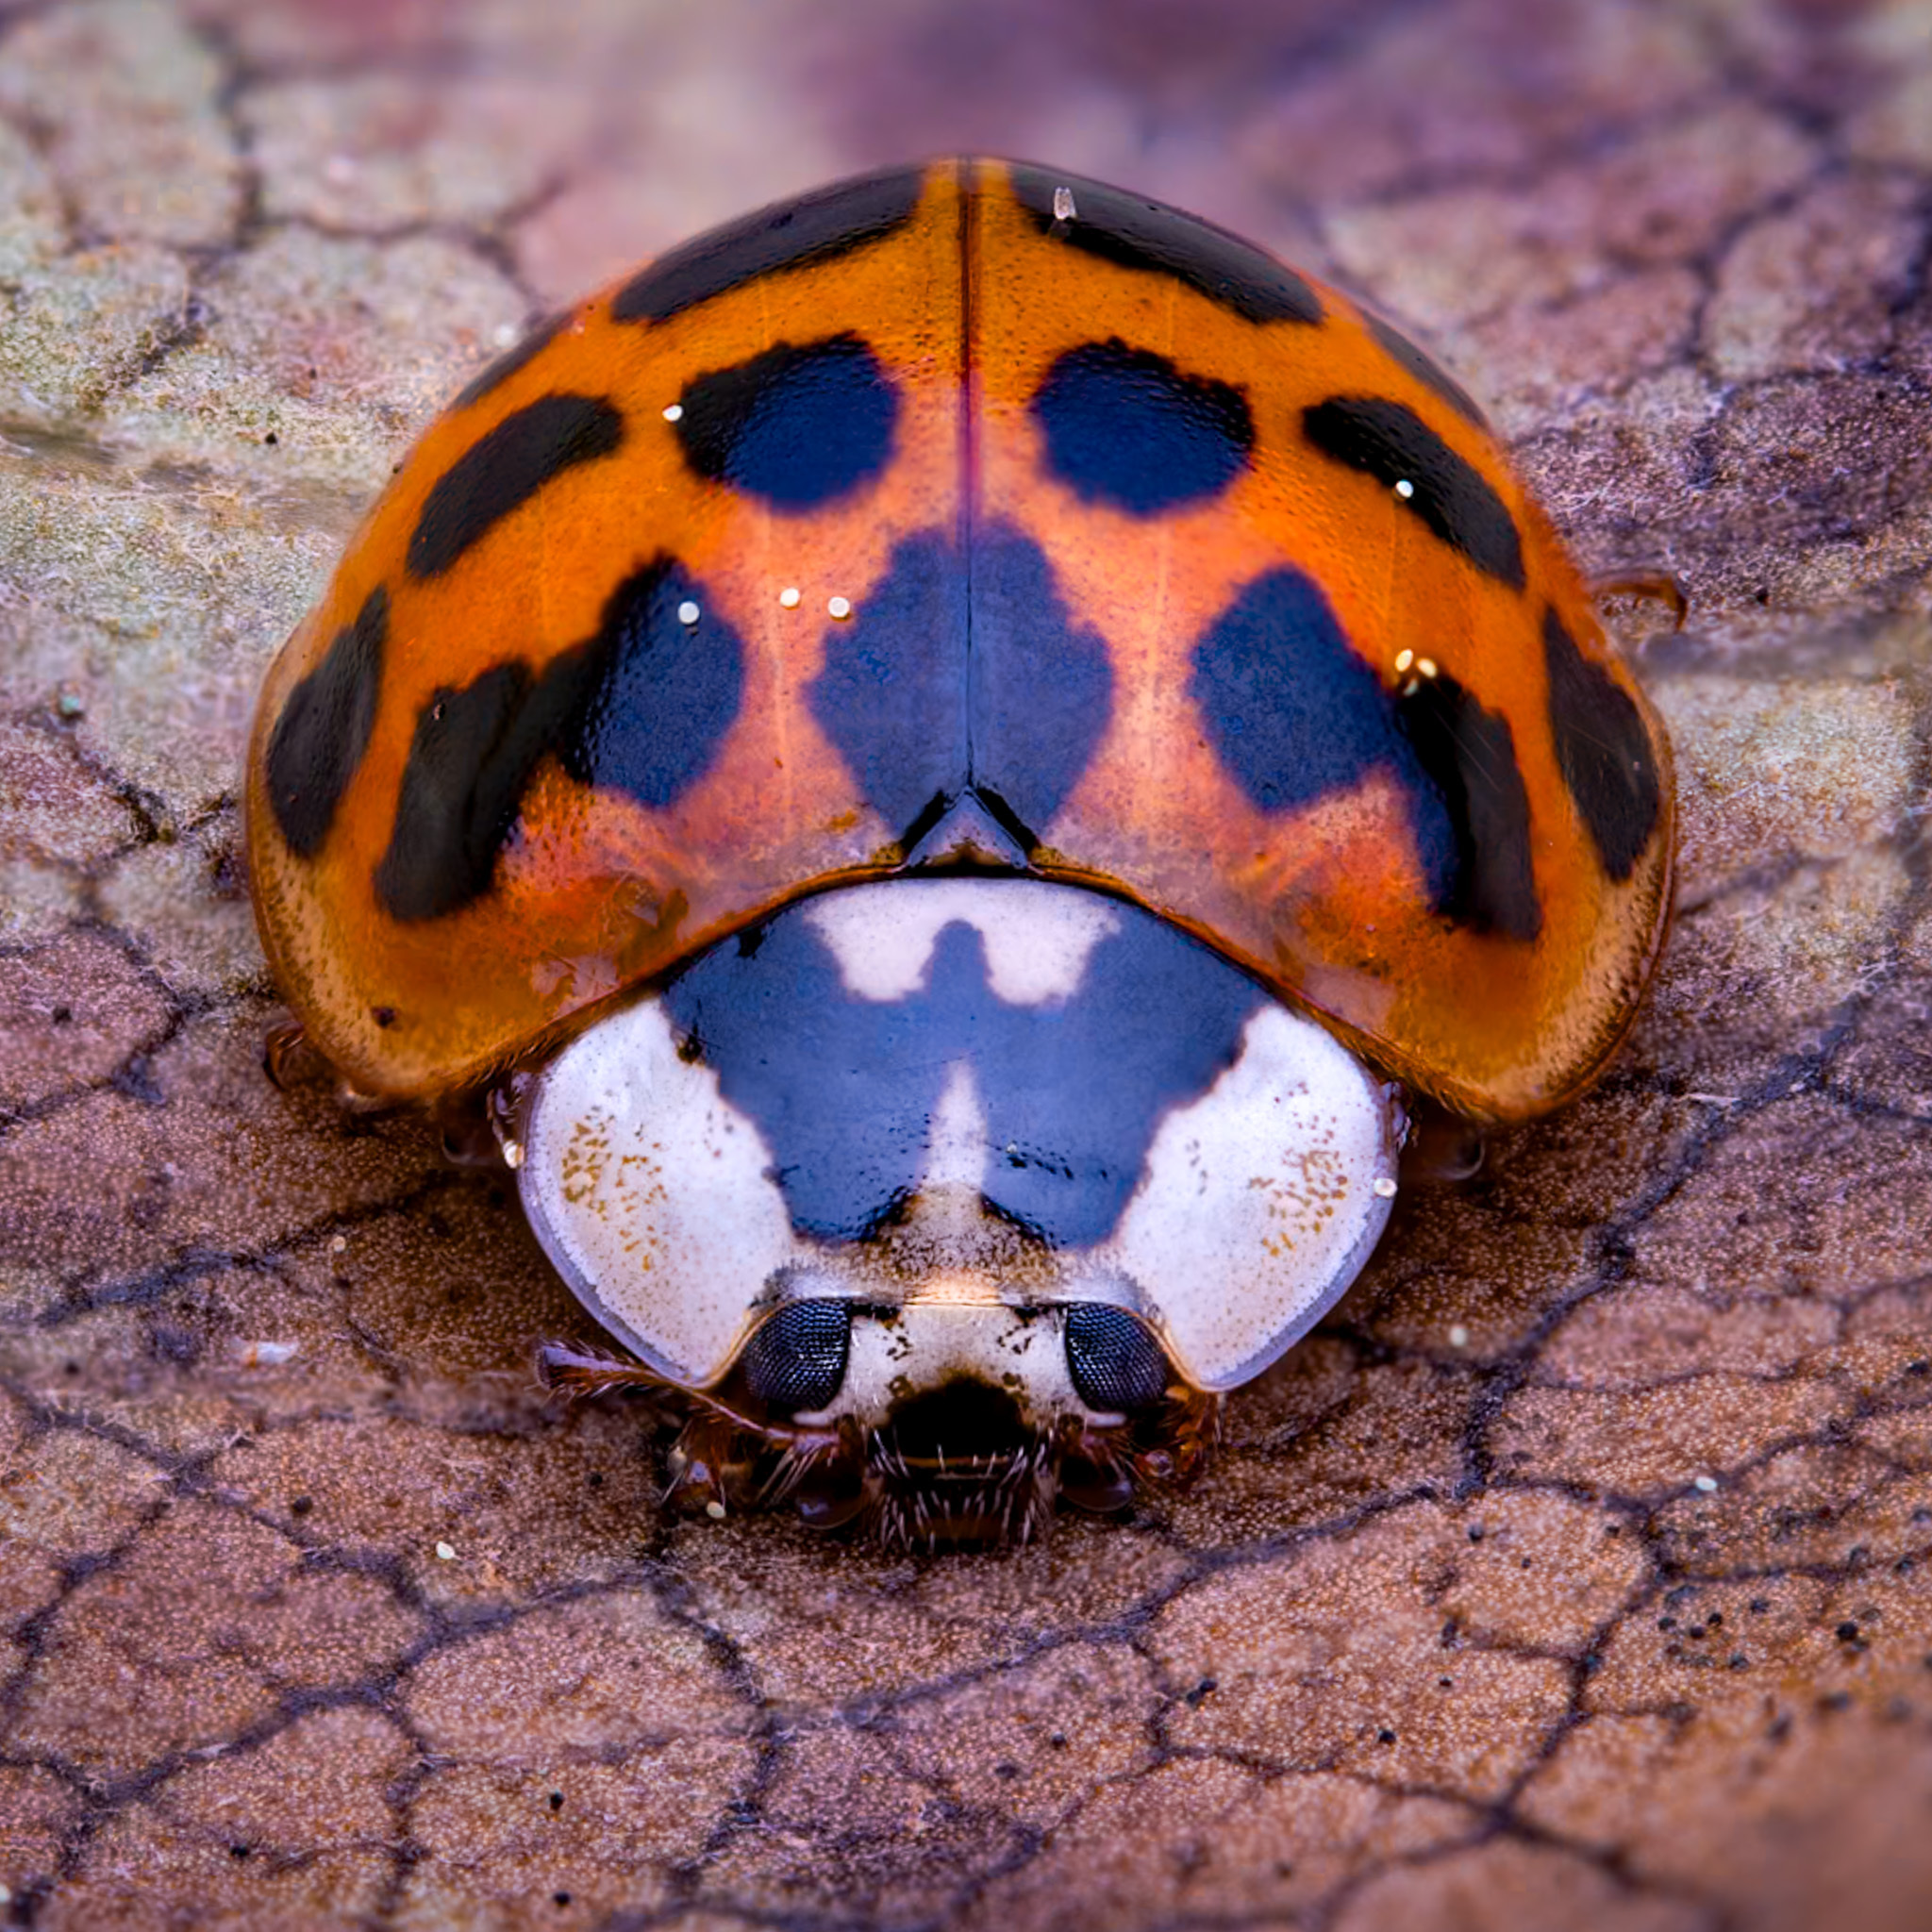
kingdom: Animalia
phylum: Arthropoda
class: Insecta
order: Coleoptera
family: Coccinellidae
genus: Harmonia
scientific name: Harmonia axyridis
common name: Harlequin ladybird
